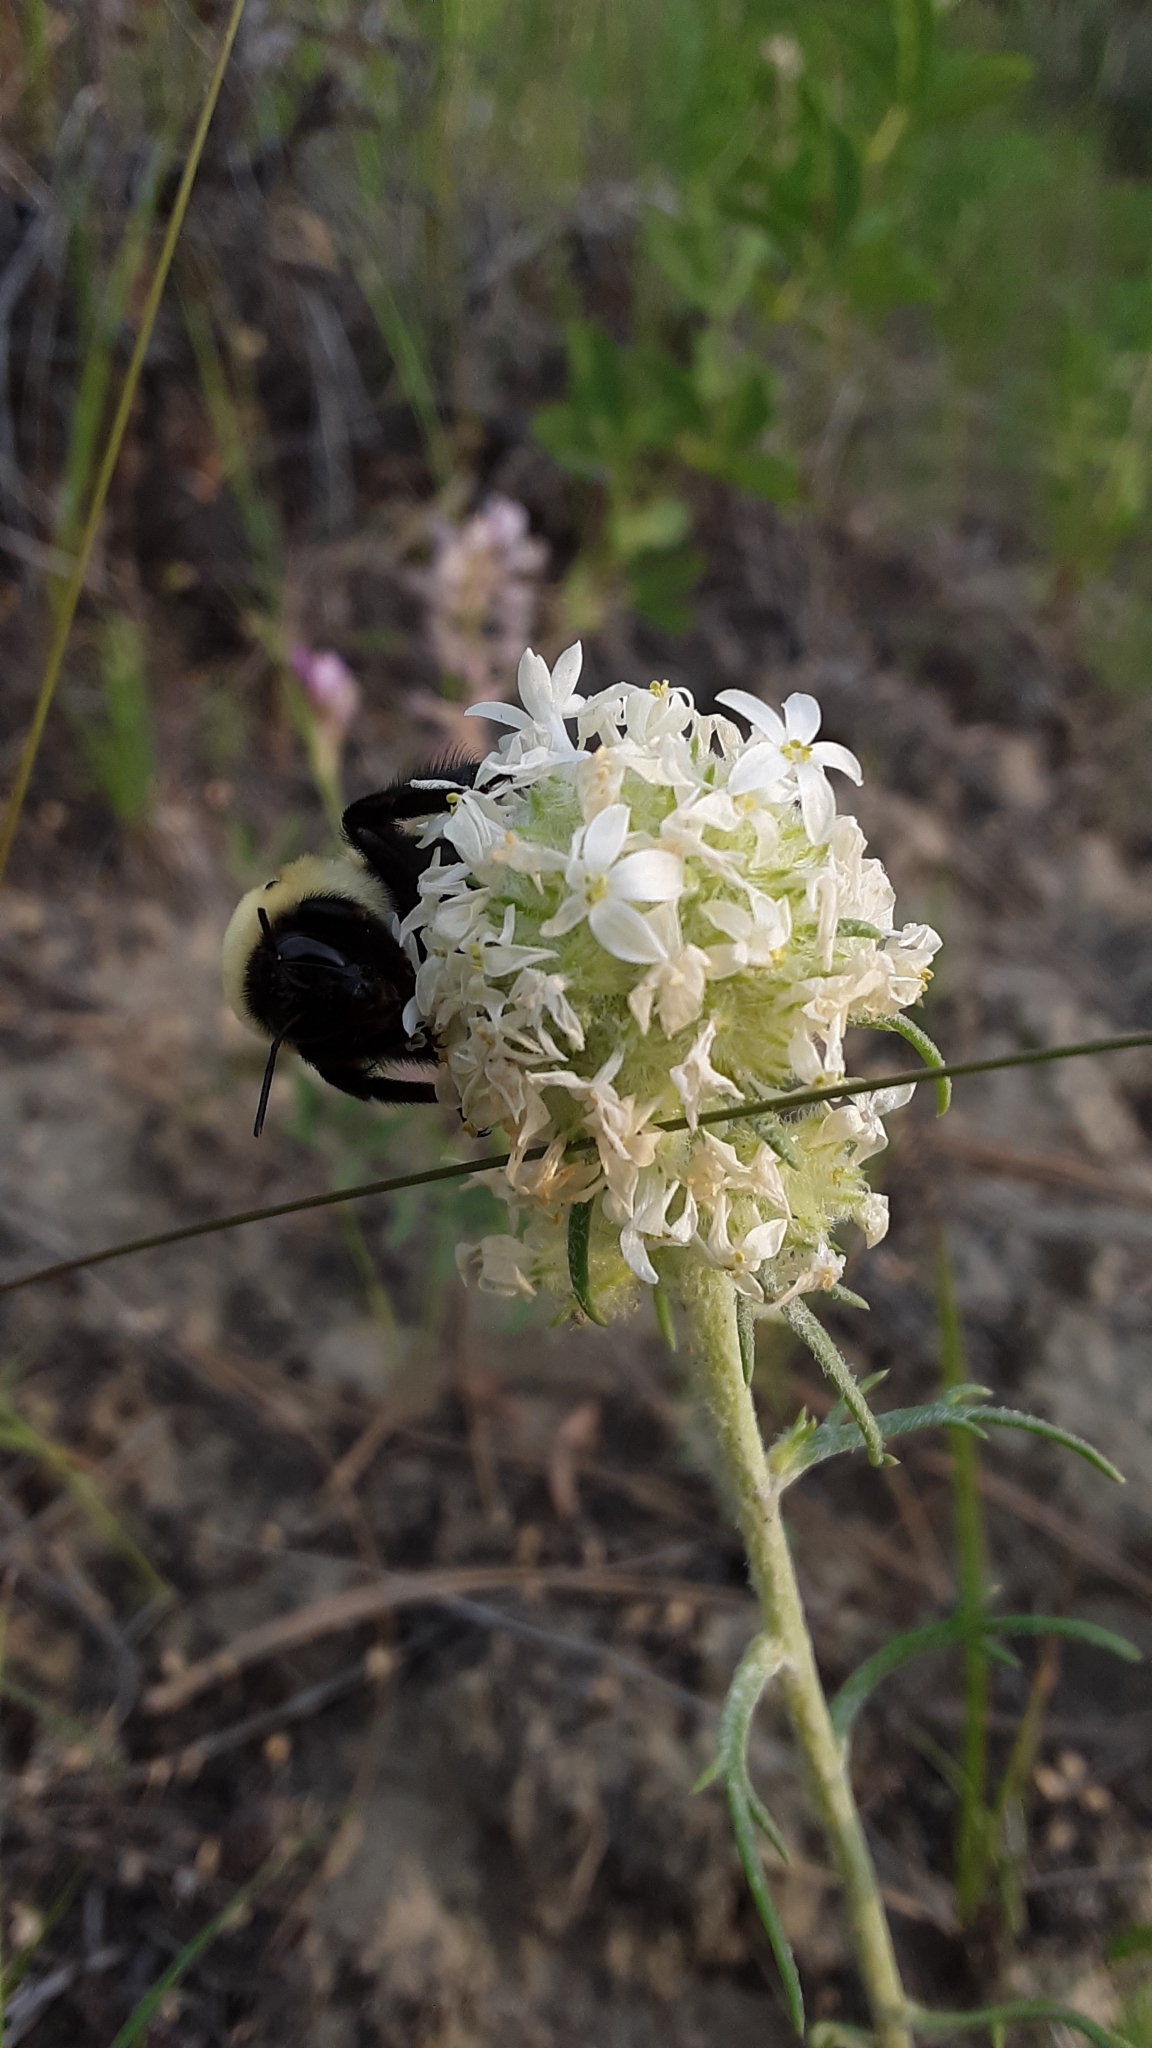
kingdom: Animalia
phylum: Arthropoda
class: Insecta
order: Hymenoptera
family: Apidae
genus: Bombus
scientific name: Bombus griseocollis
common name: Brown-belted bumble bee
